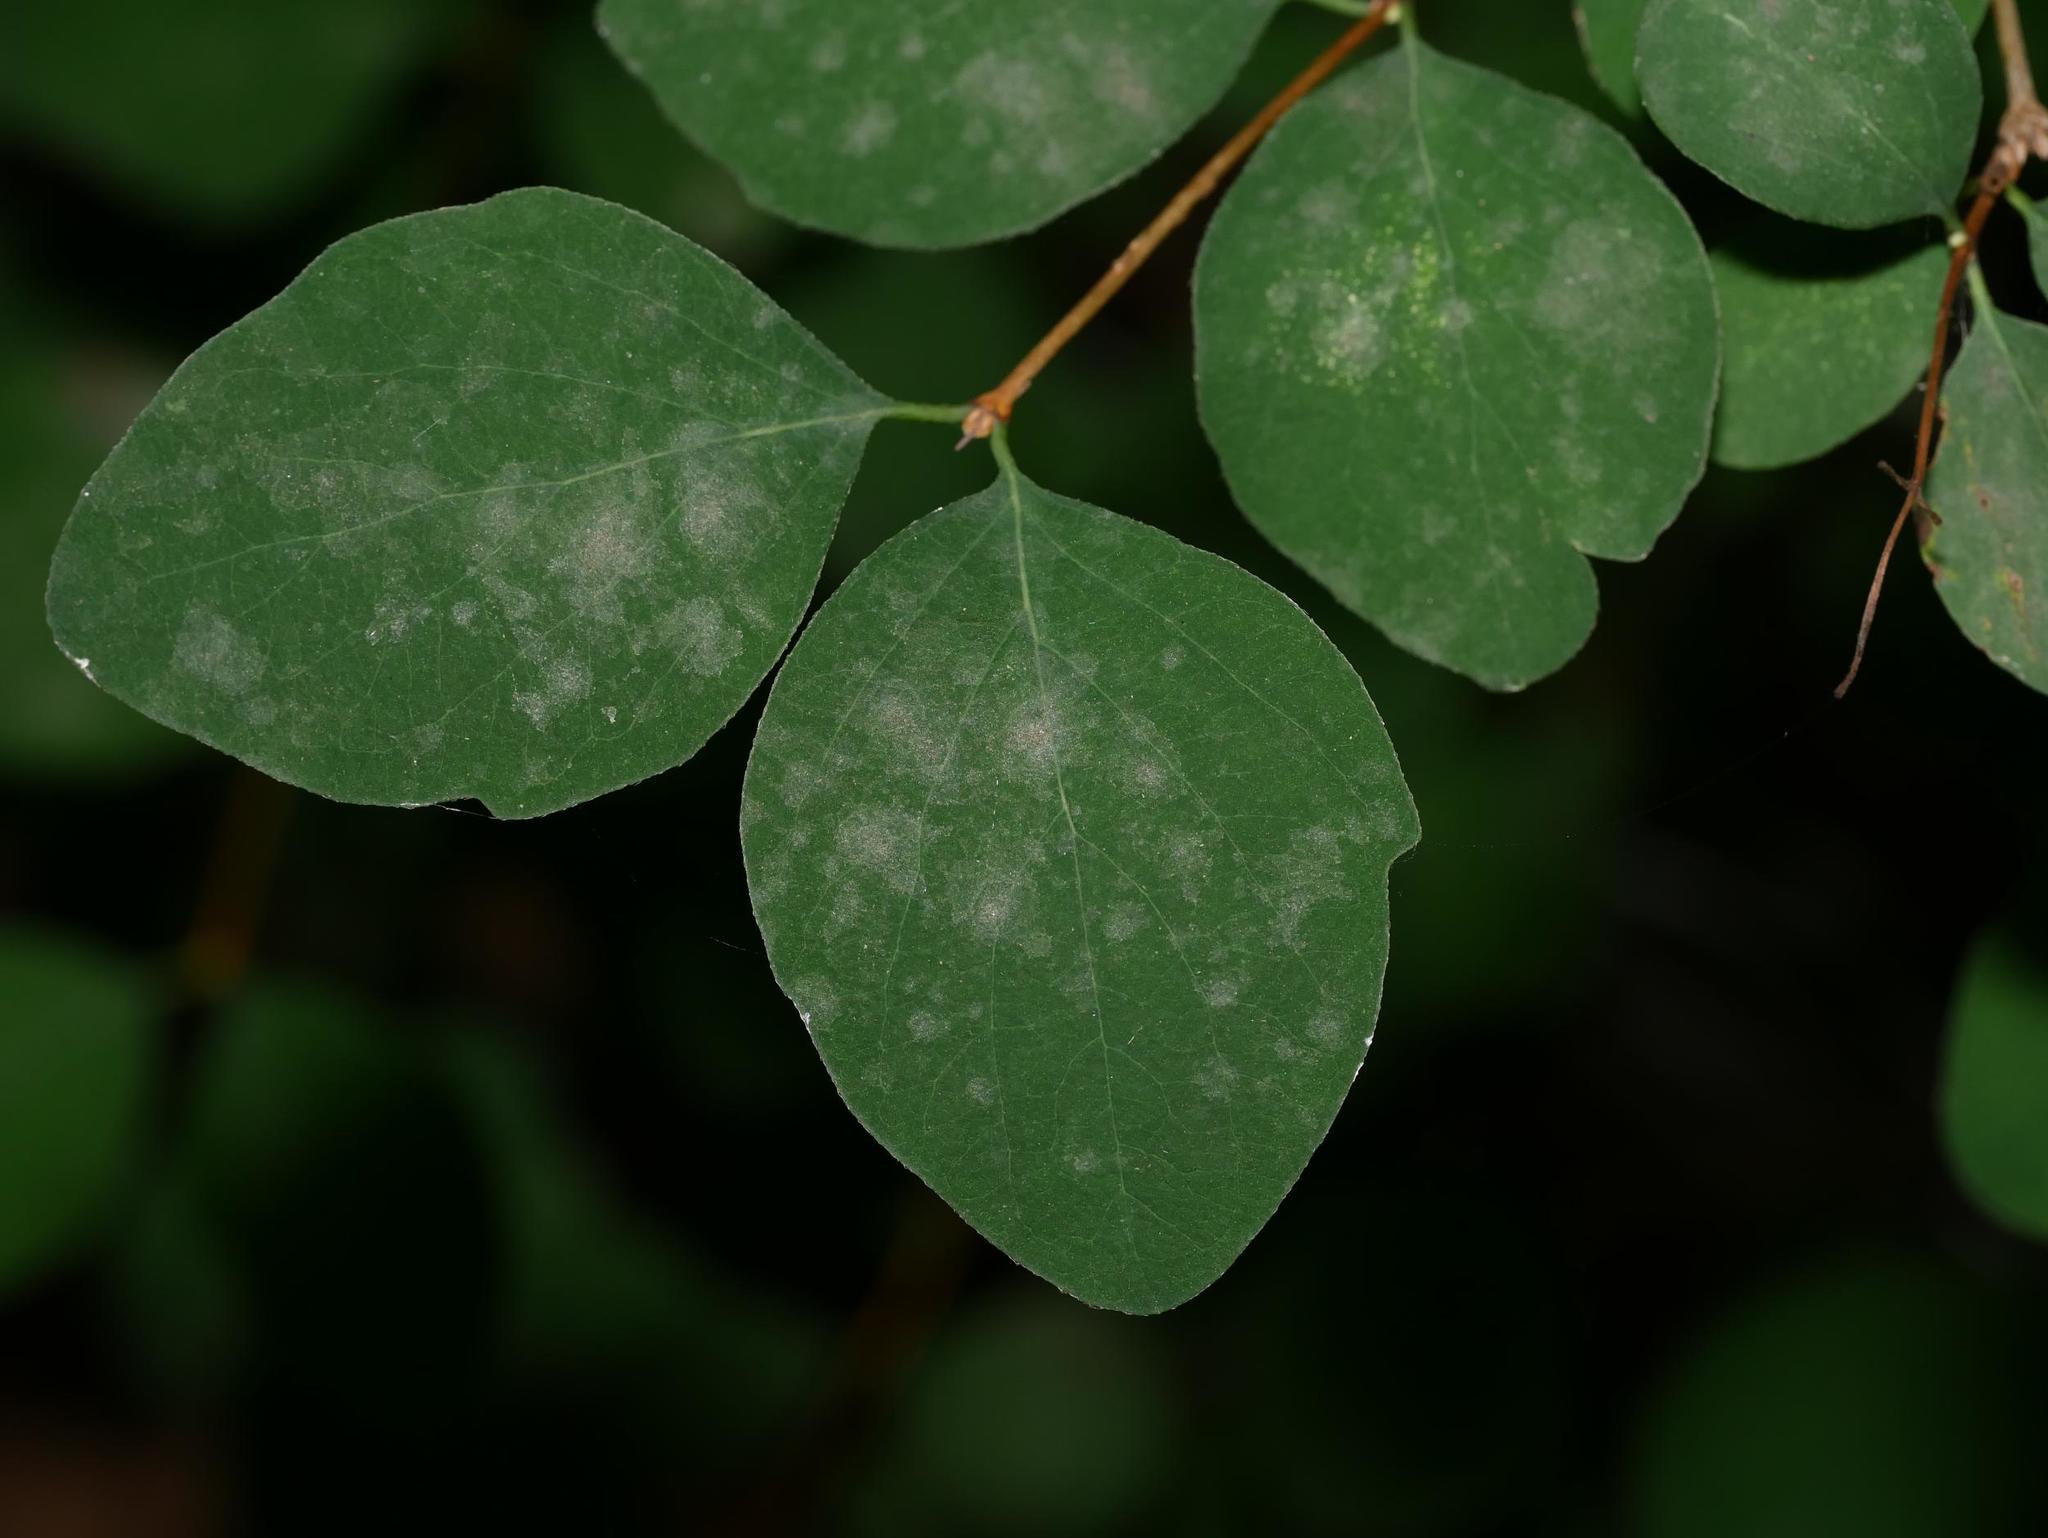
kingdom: Fungi
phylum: Ascomycota
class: Leotiomycetes
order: Helotiales
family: Erysiphaceae
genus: Erysiphe
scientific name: Erysiphe symphoricarpi
